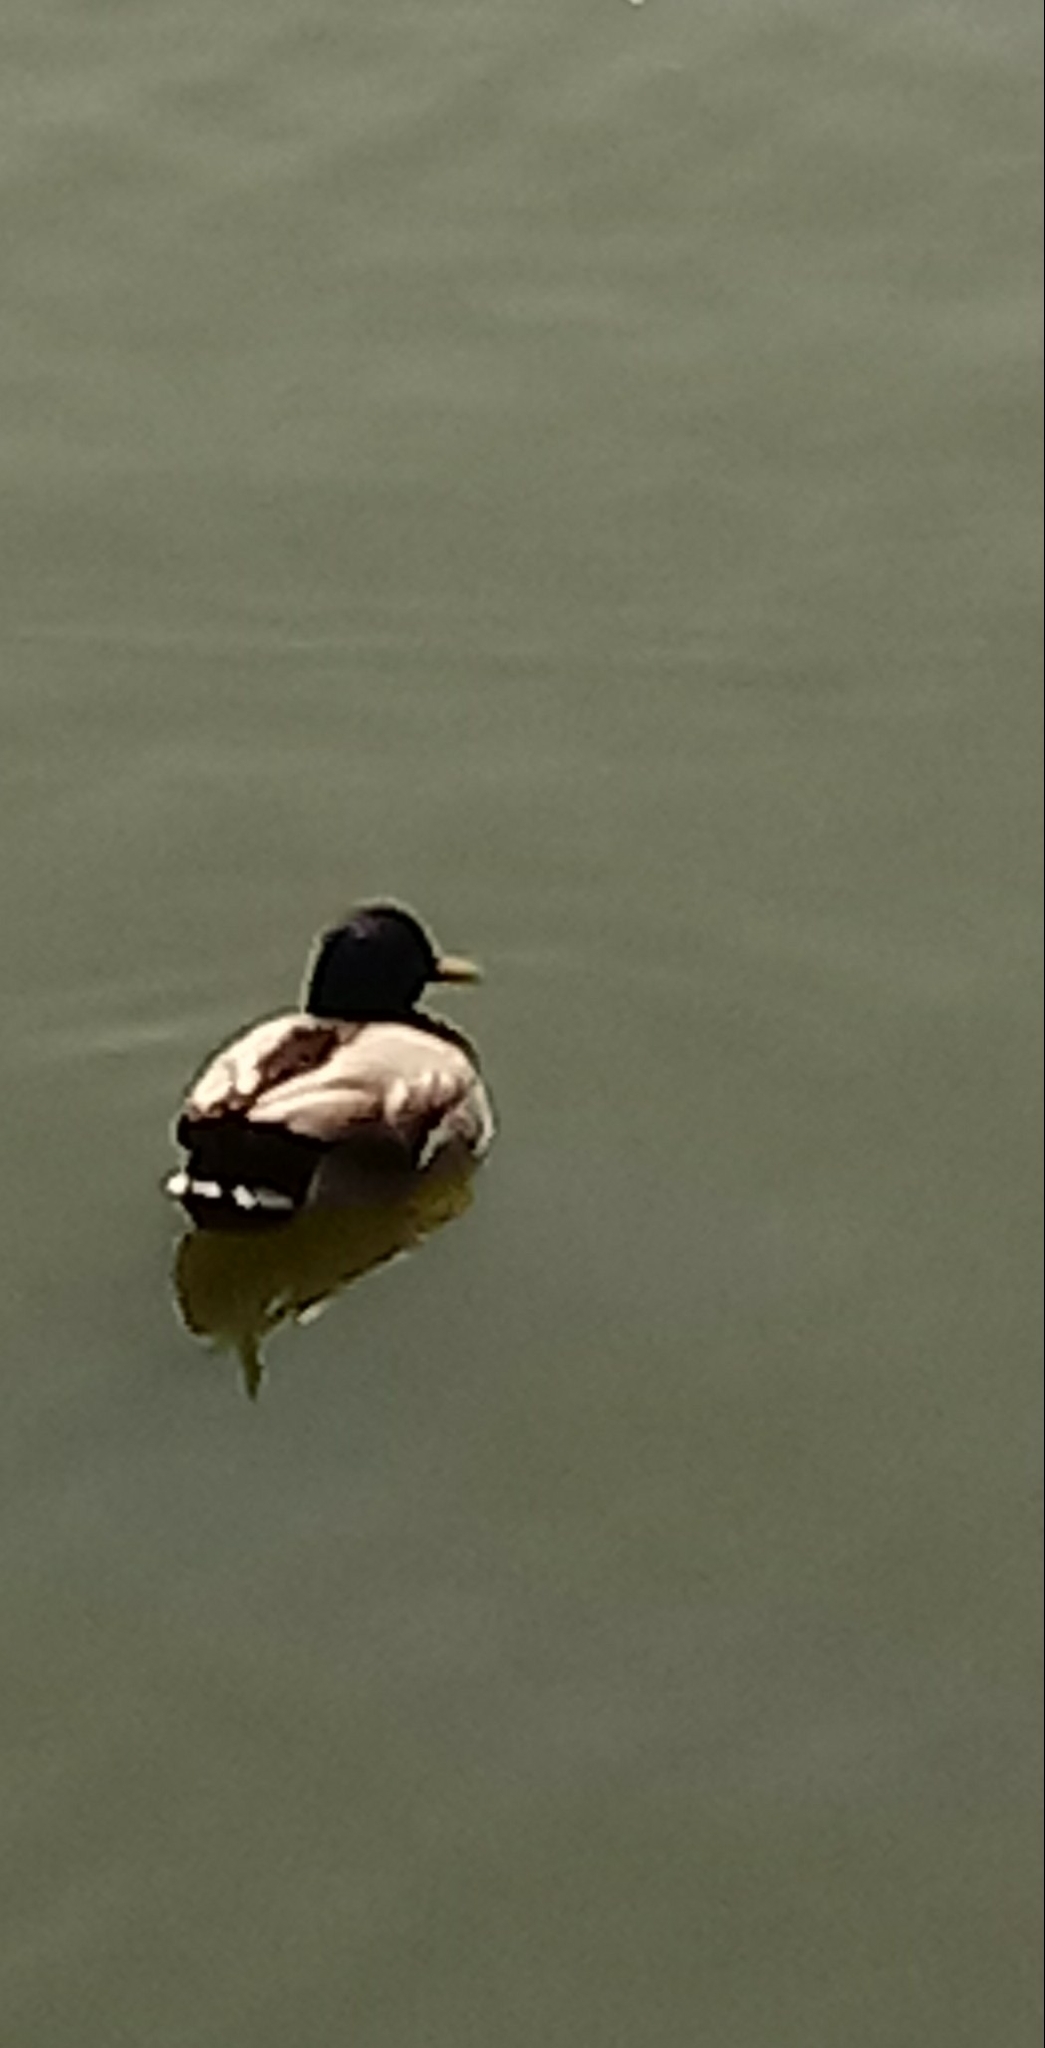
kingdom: Animalia
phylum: Chordata
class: Aves
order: Anseriformes
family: Anatidae
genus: Anas
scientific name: Anas platyrhynchos
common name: Mallard
